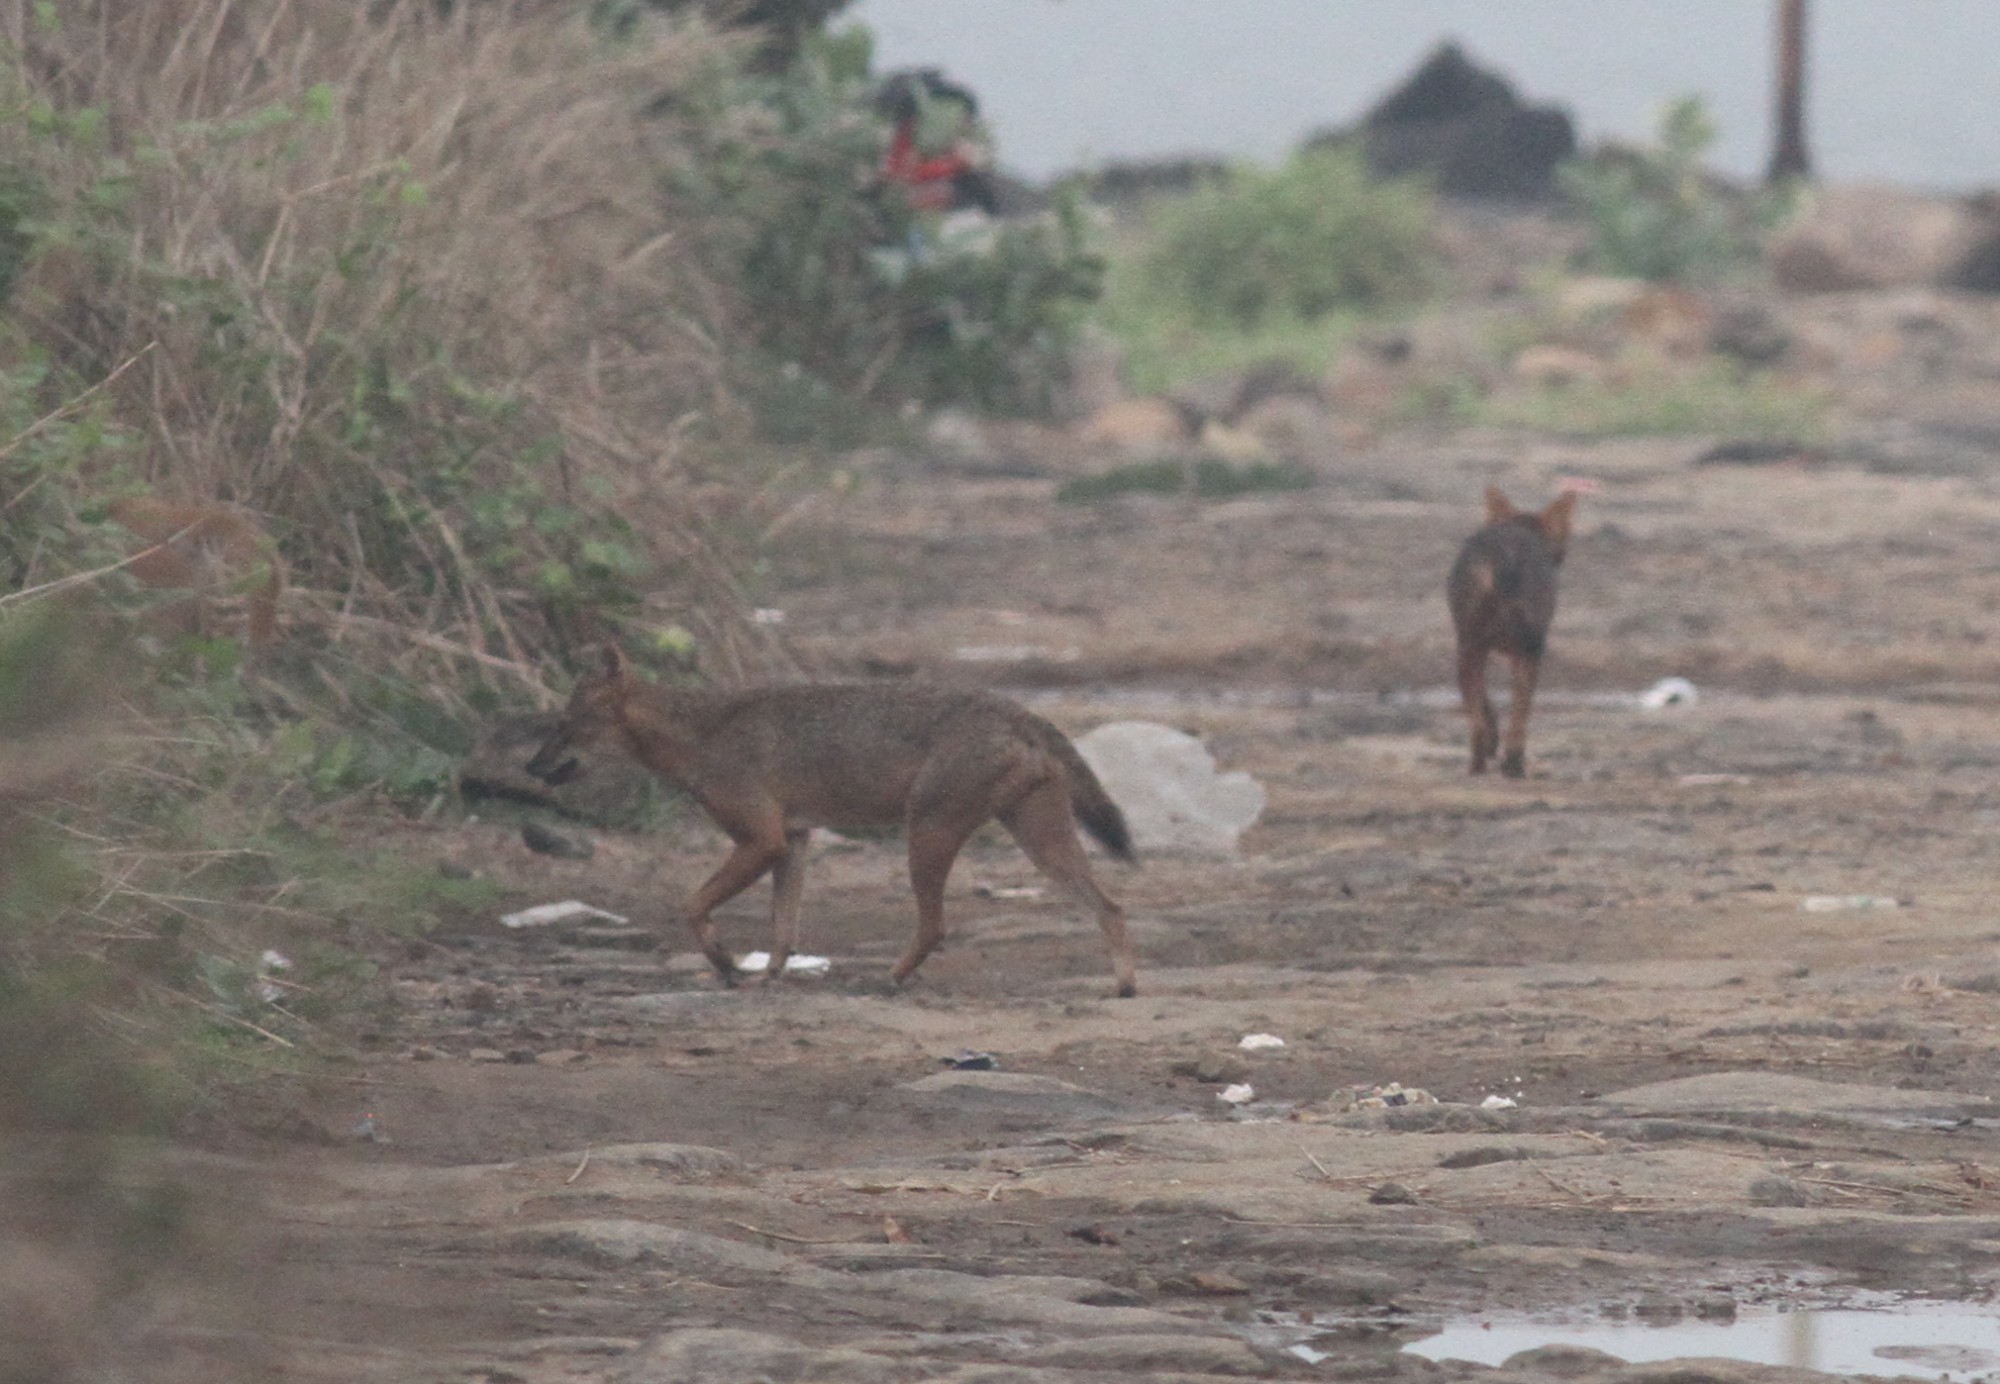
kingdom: Animalia
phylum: Chordata
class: Mammalia
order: Carnivora
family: Canidae
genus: Canis
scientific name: Canis aureus
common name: Golden jackal
